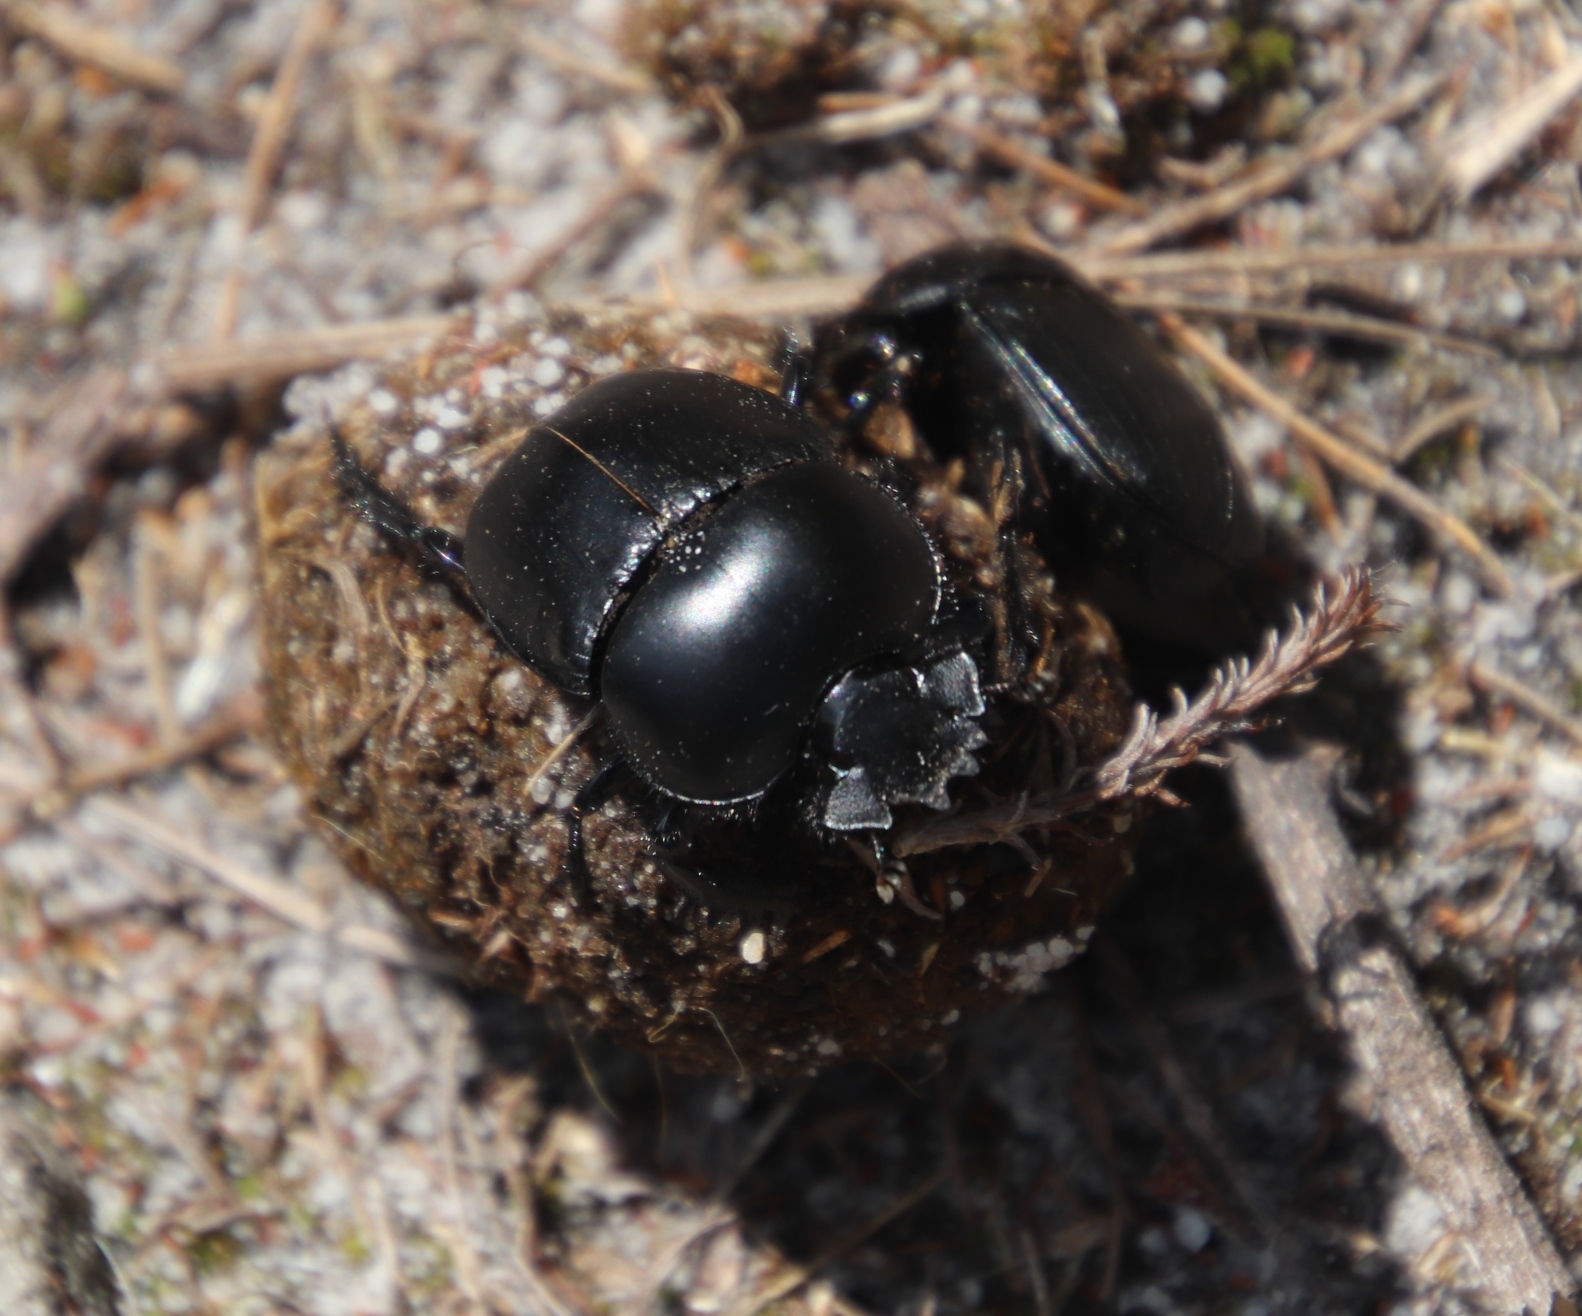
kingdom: Animalia
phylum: Arthropoda
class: Insecta
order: Coleoptera
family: Scarabaeidae
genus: Scarabaeus
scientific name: Scarabaeus suri
